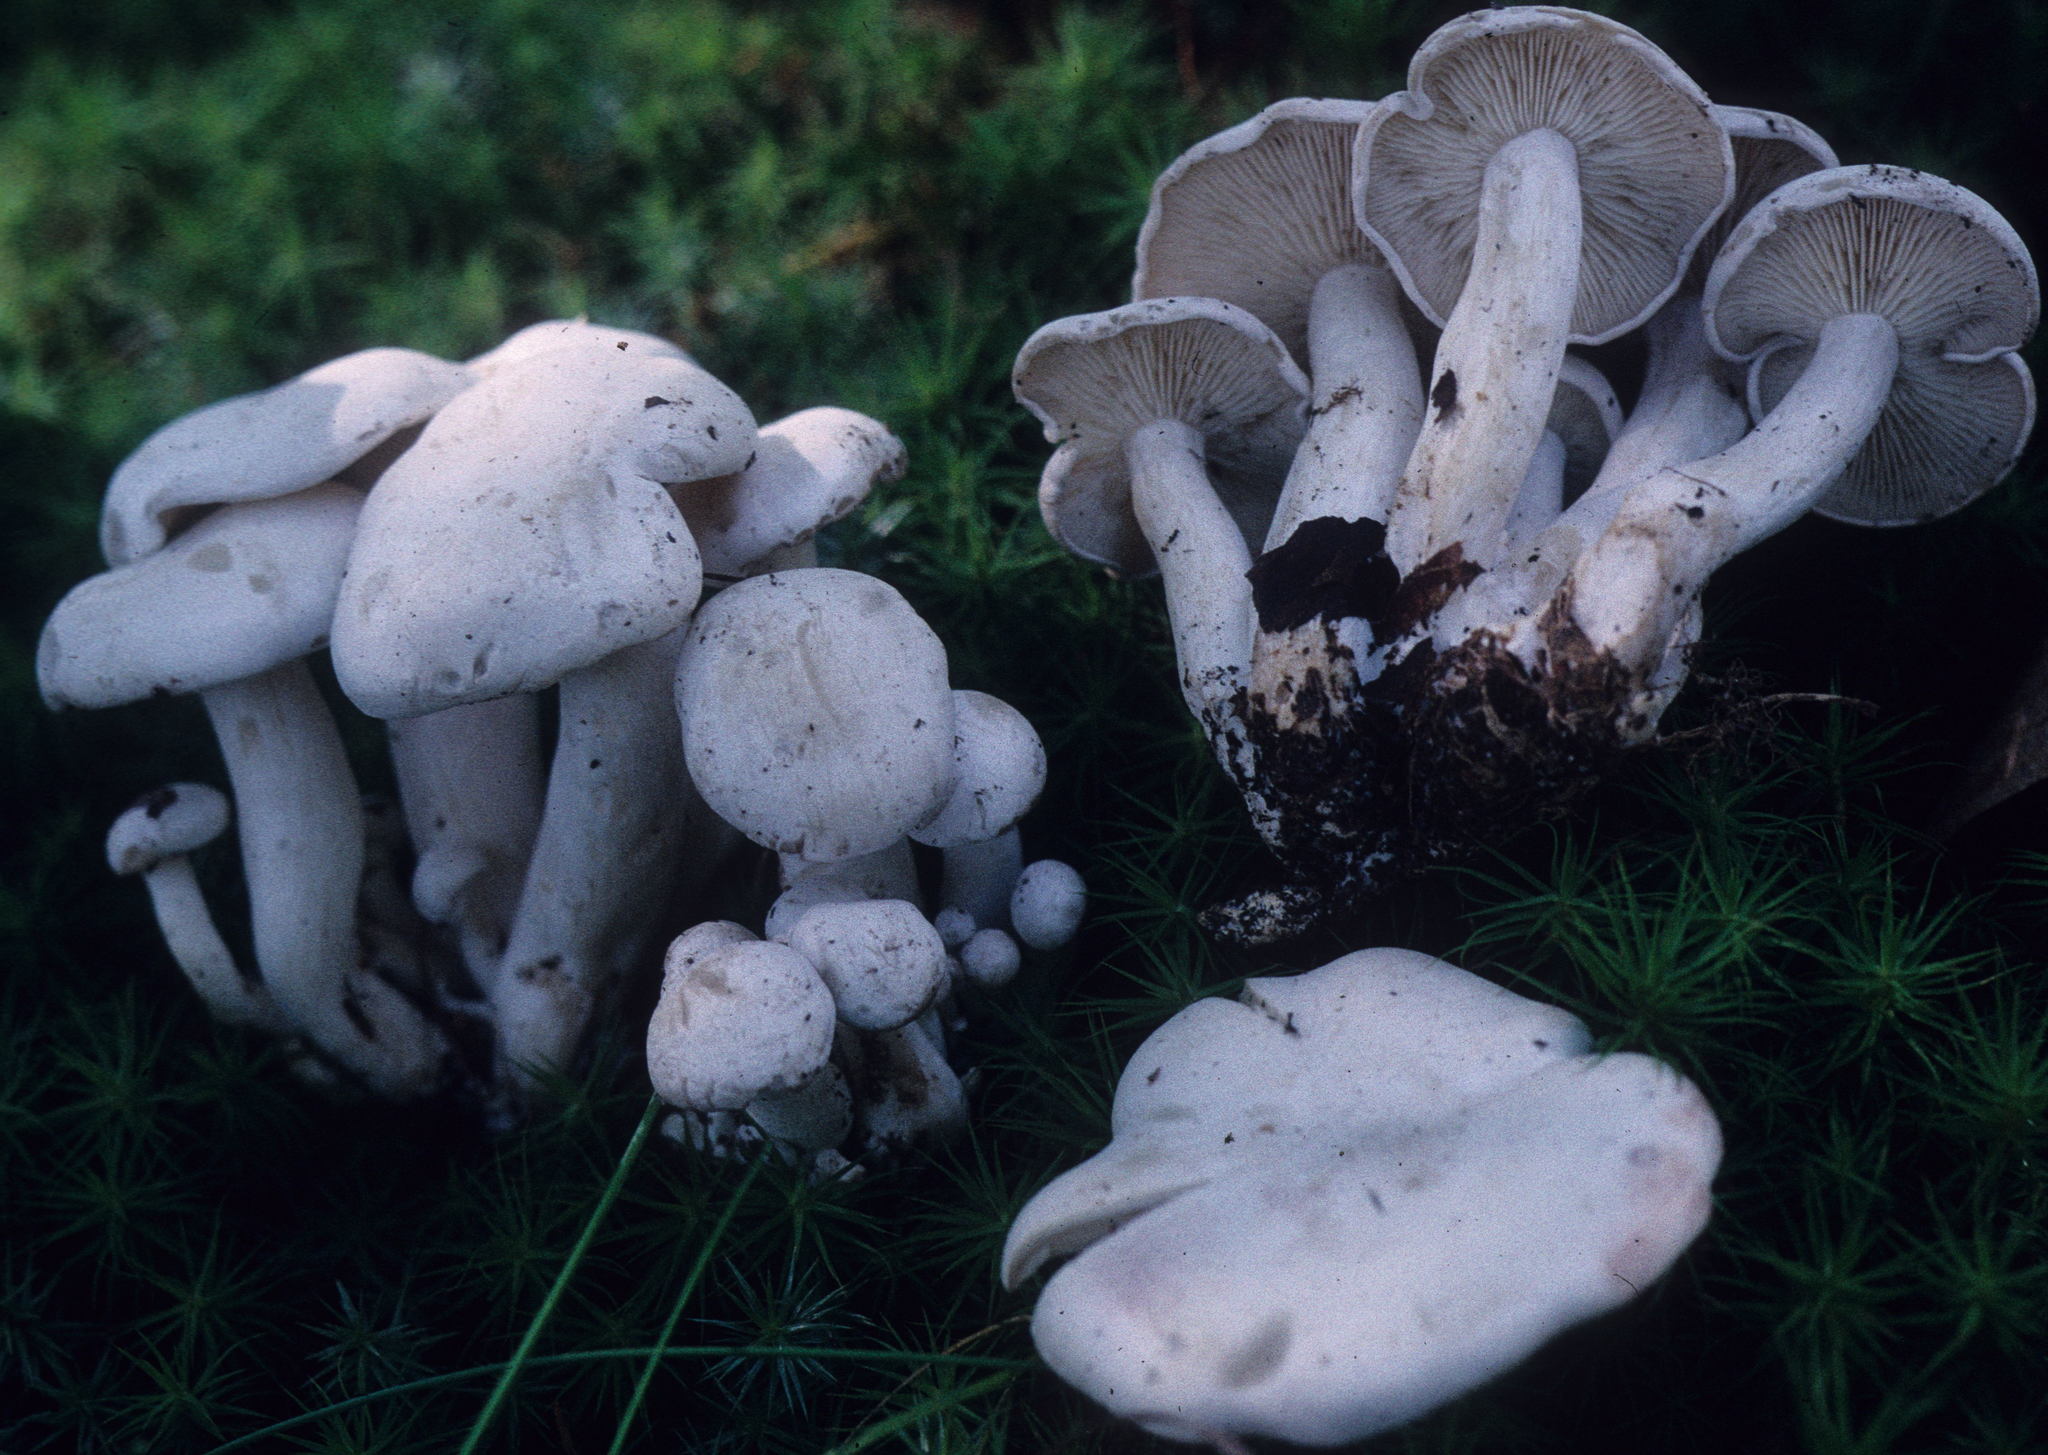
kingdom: Fungi
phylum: Basidiomycota
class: Agaricomycetes
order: Agaricales
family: Tricholomataceae
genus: Leucocybe
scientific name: Leucocybe connata
